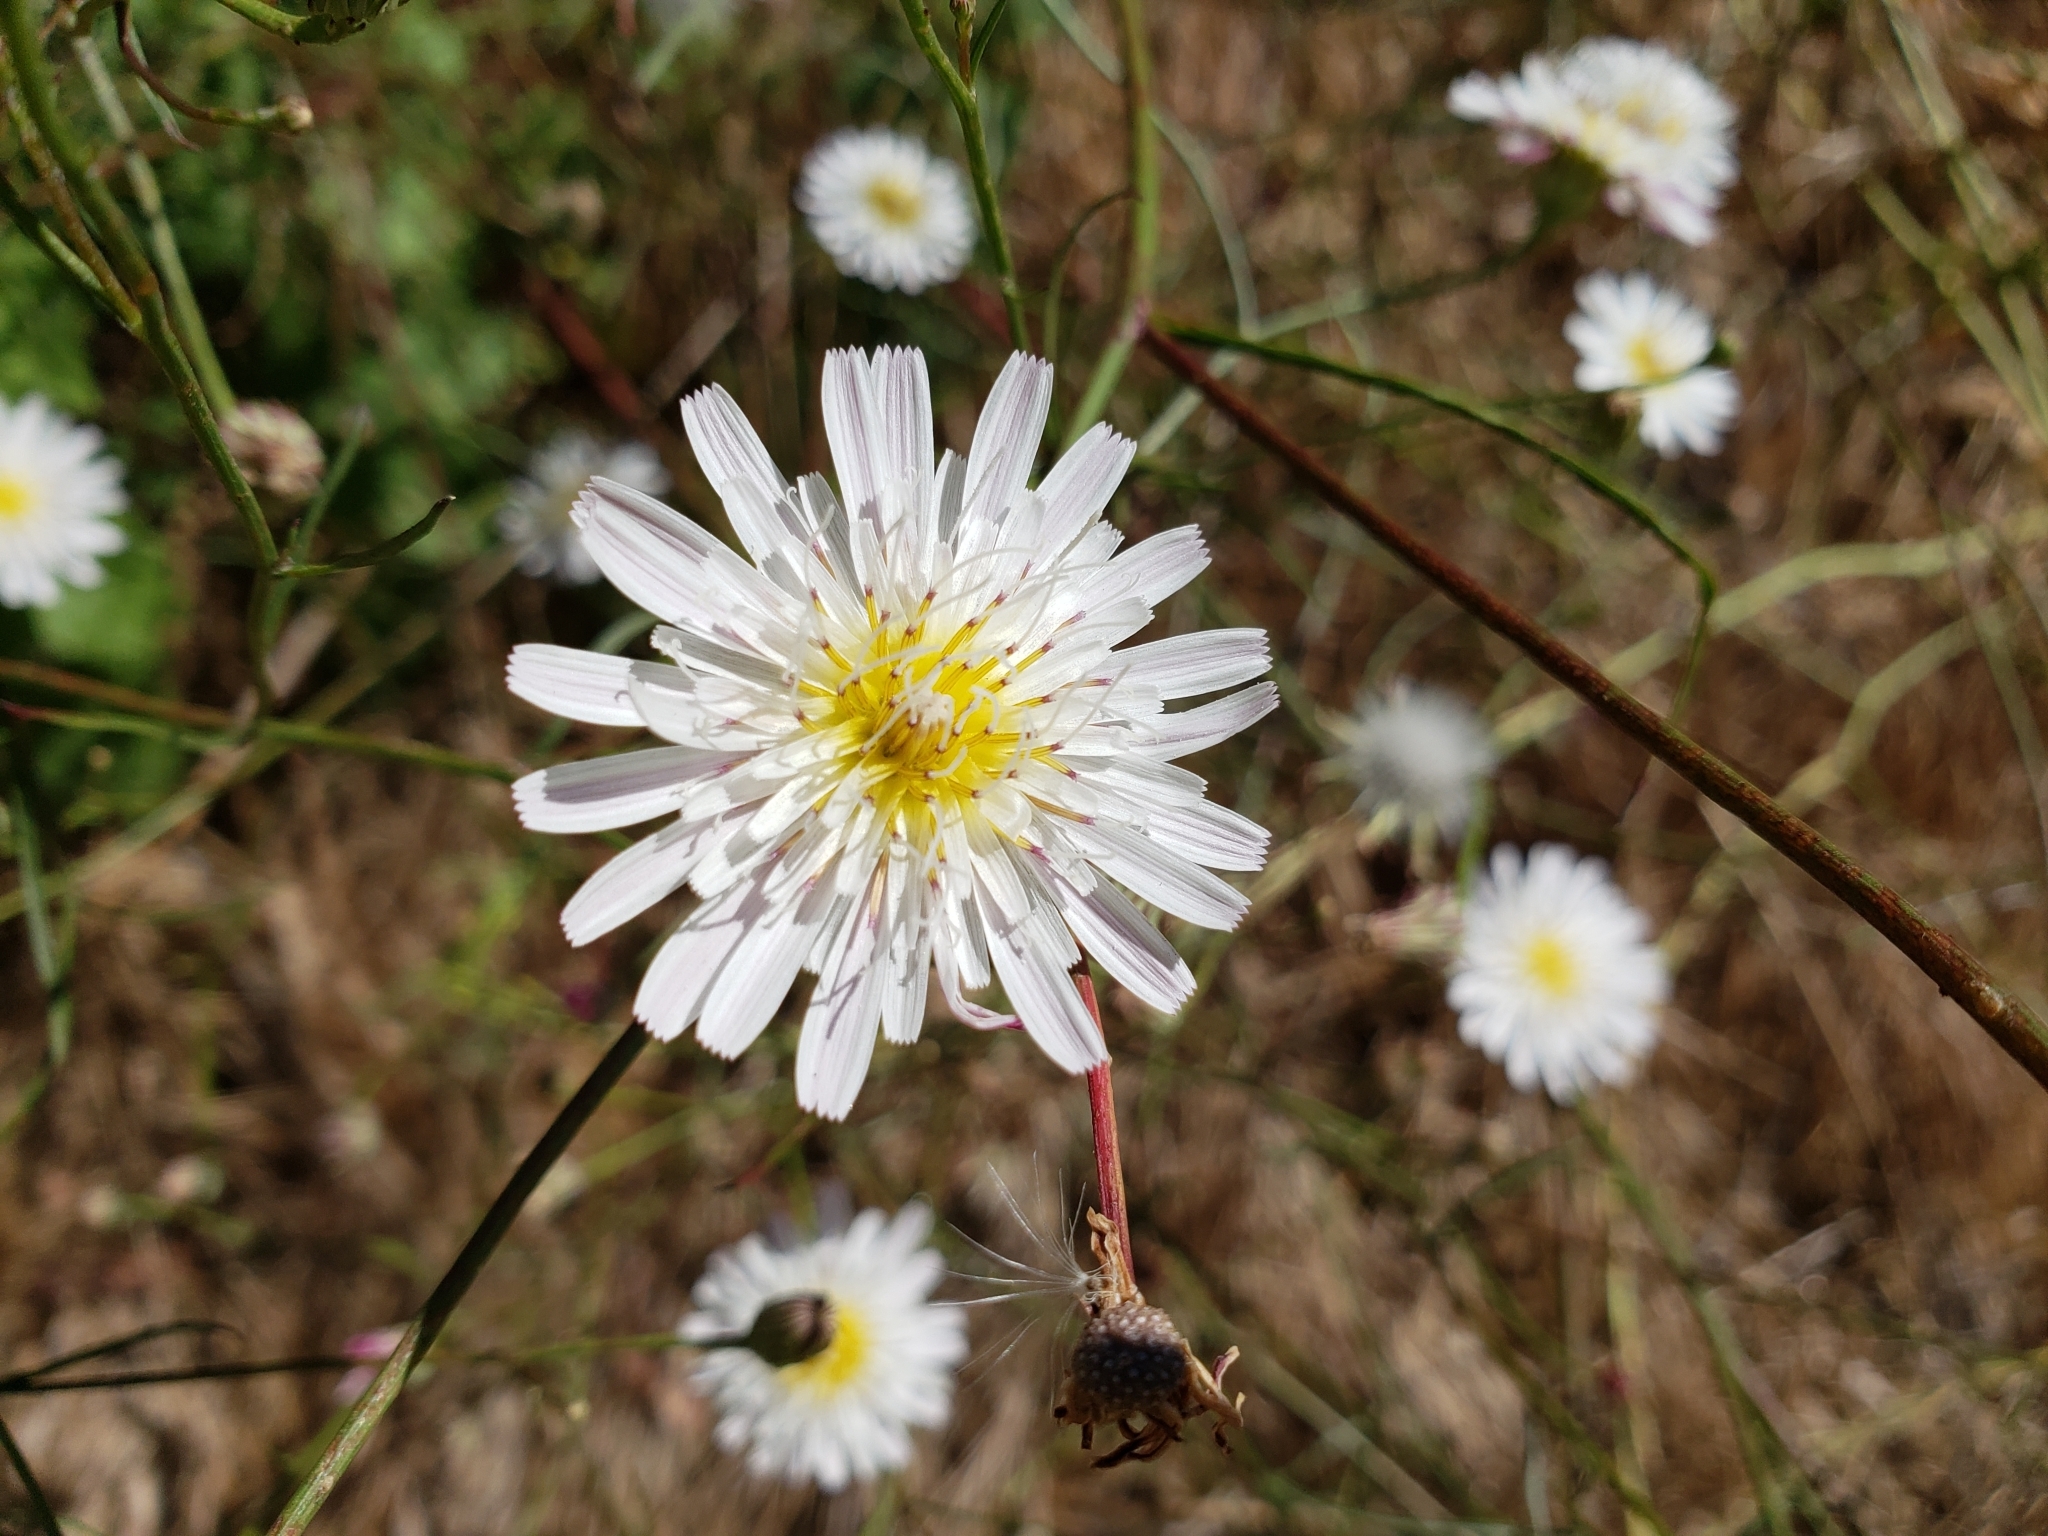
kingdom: Plantae
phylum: Tracheophyta
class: Magnoliopsida
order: Asterales
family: Asteraceae
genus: Malacothrix
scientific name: Malacothrix saxatilis
